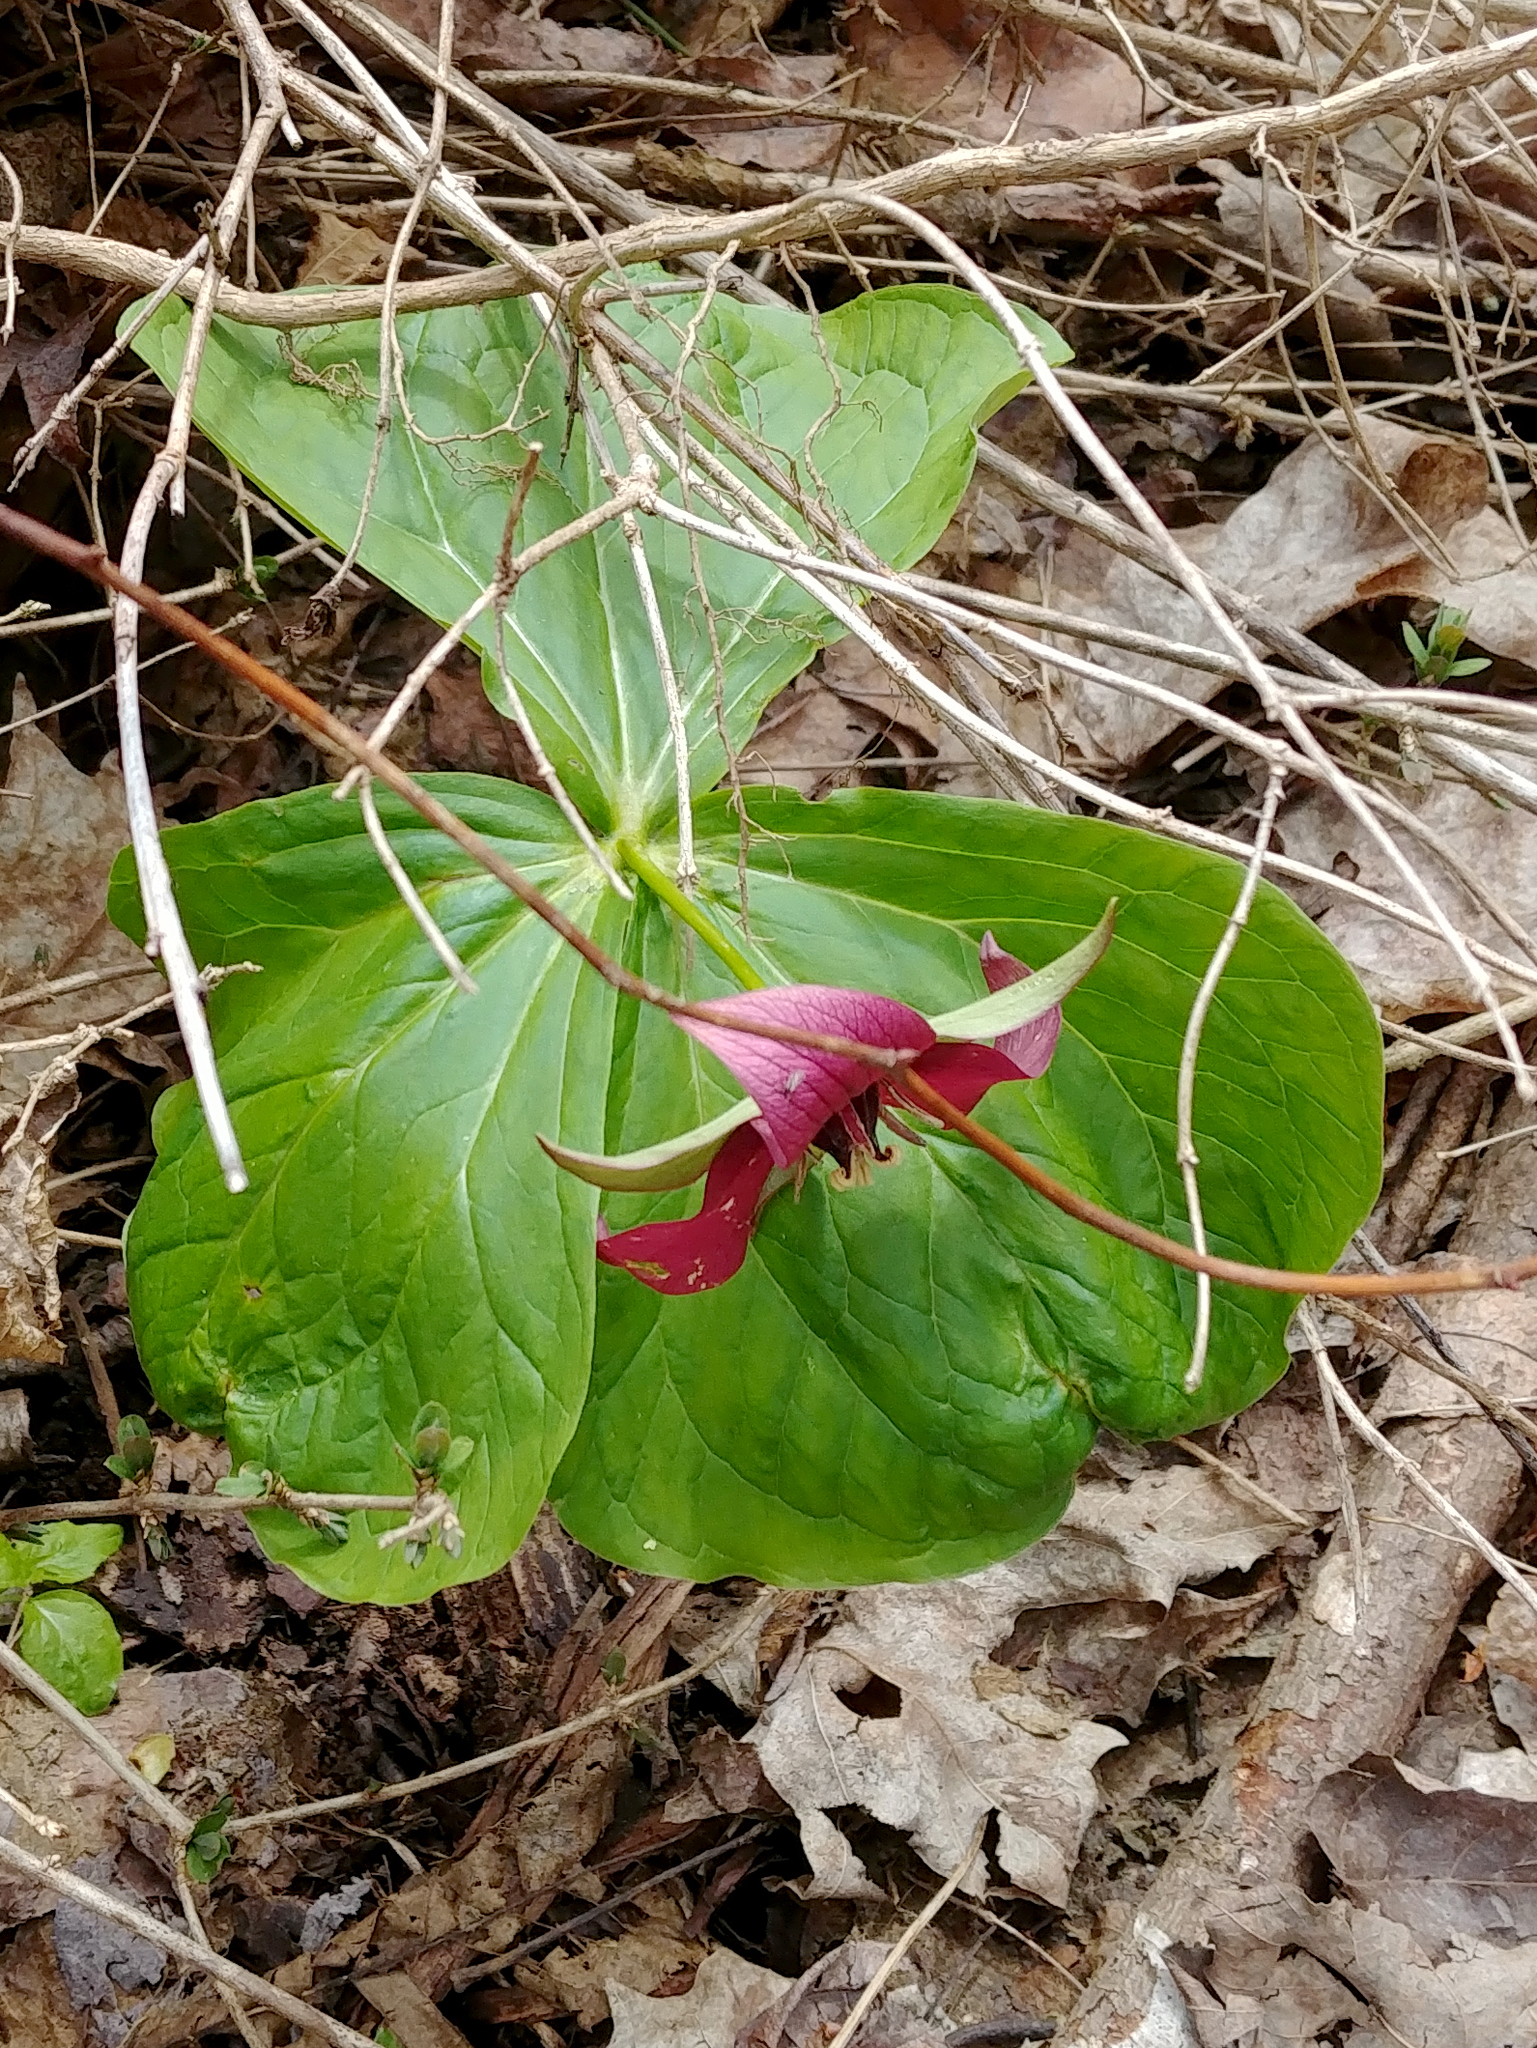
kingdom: Plantae
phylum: Tracheophyta
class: Liliopsida
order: Liliales
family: Melanthiaceae
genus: Trillium
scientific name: Trillium erectum
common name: Purple trillium
